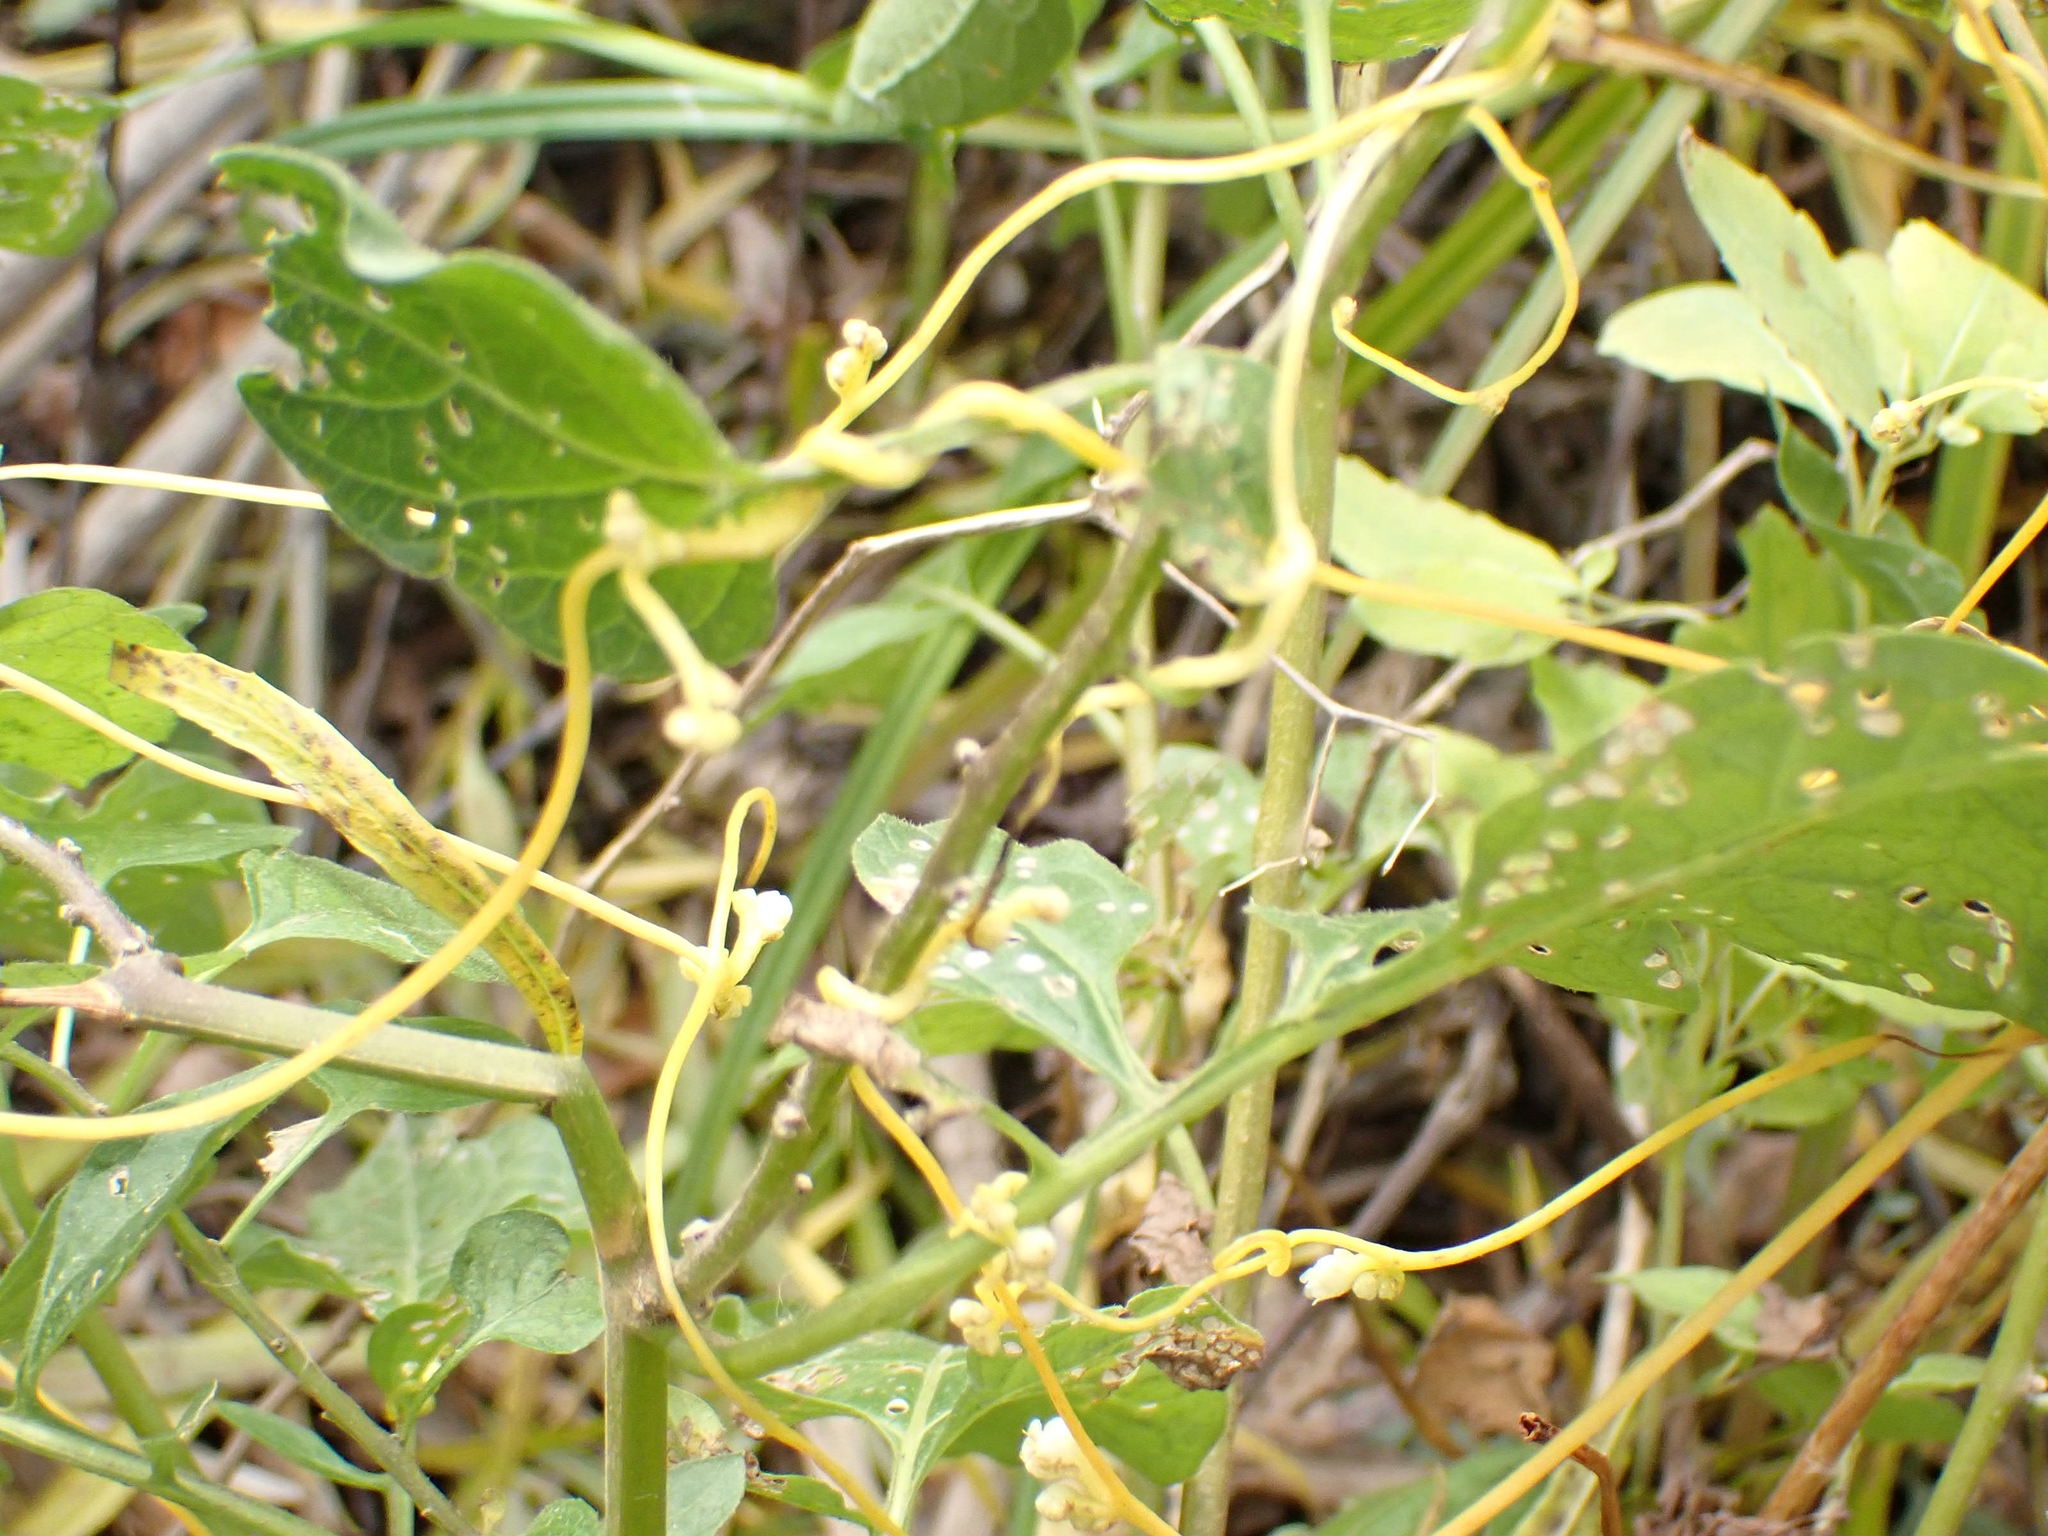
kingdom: Plantae
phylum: Tracheophyta
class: Magnoliopsida
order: Solanales
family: Convolvulaceae
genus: Cuscuta
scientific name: Cuscuta gronovii
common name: Common dodder
